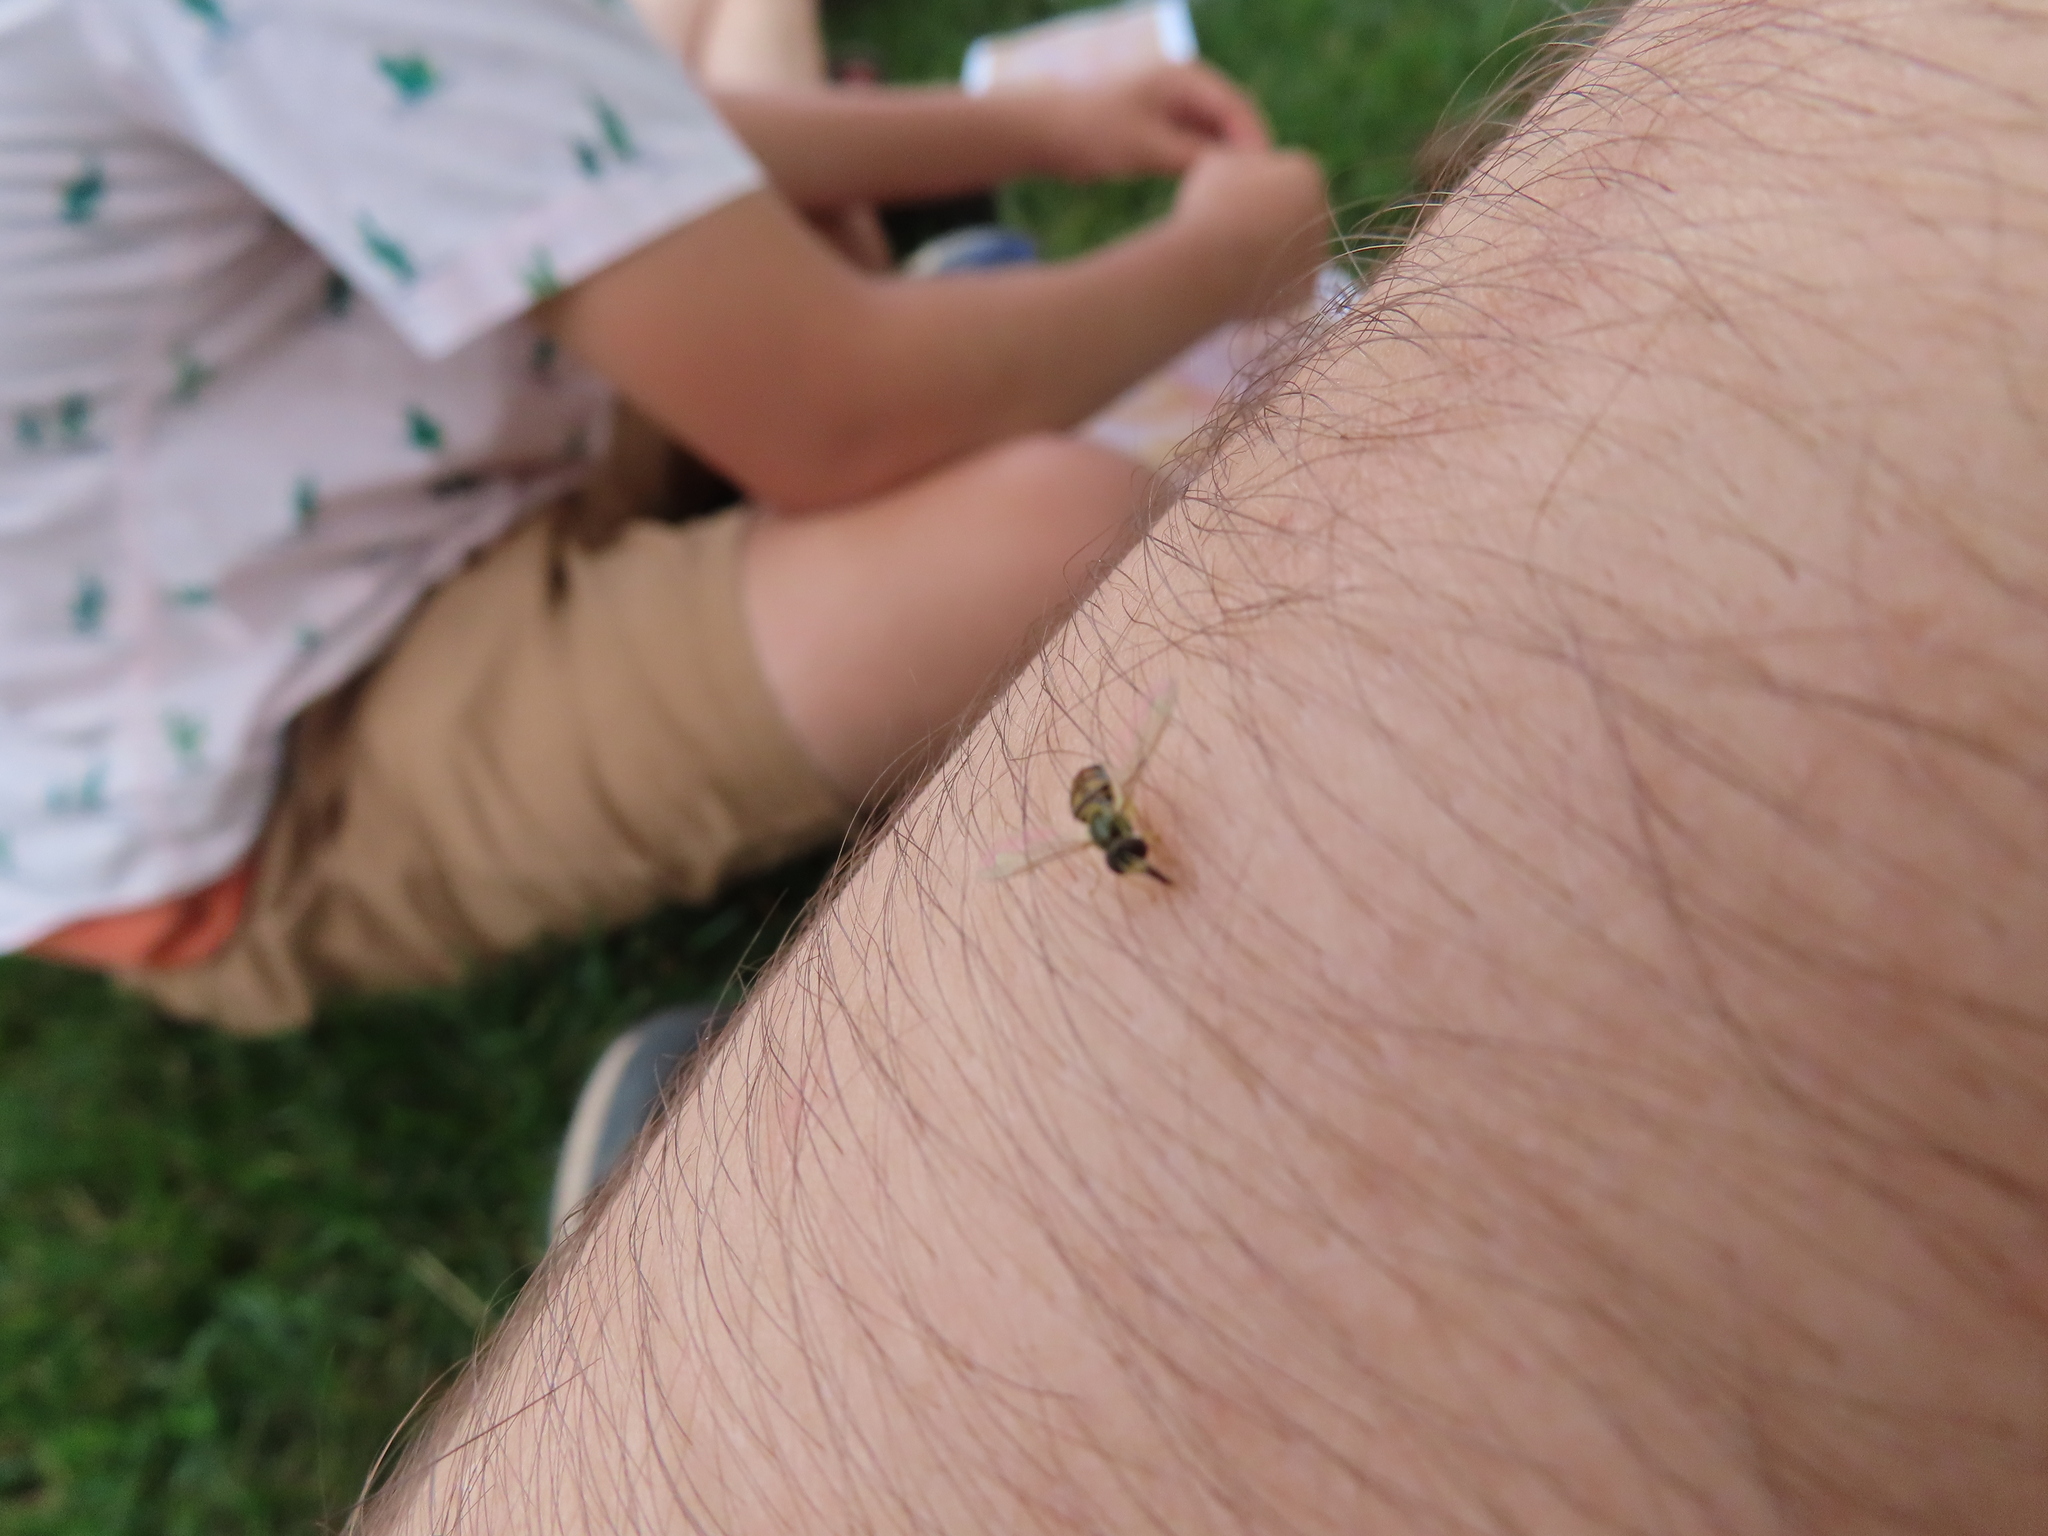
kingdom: Animalia
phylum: Arthropoda
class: Insecta
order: Diptera
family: Syrphidae
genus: Toxomerus
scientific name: Toxomerus marginatus
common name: Syrphid fly
